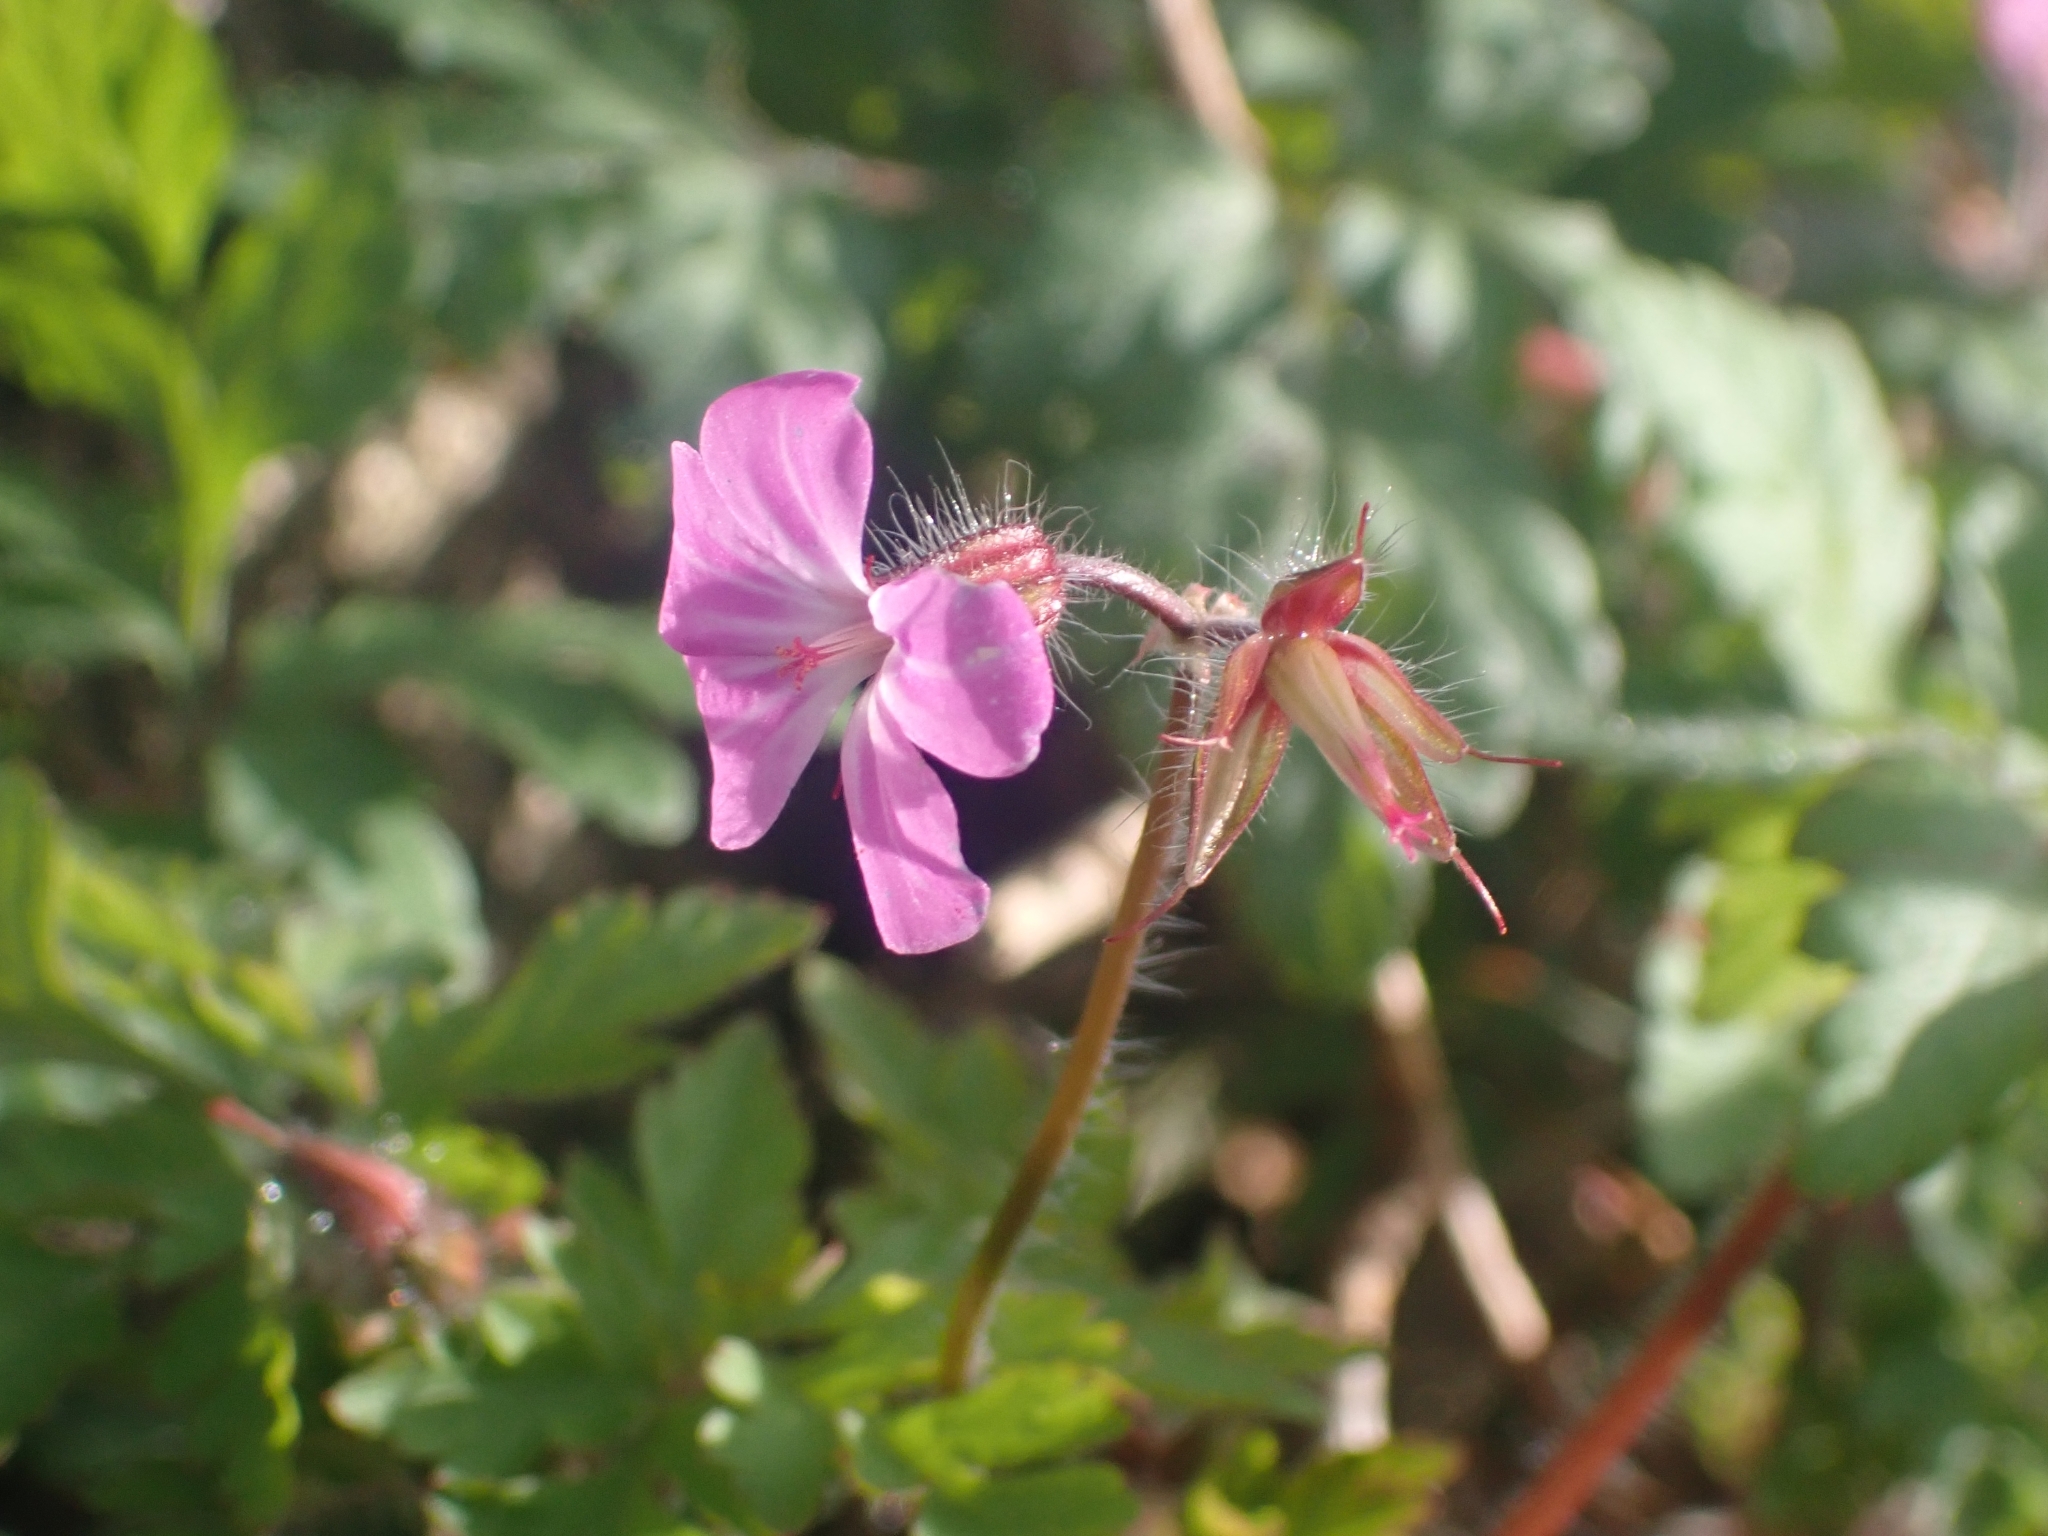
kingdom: Plantae
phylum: Tracheophyta
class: Magnoliopsida
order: Geraniales
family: Geraniaceae
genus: Geranium
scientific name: Geranium robertianum
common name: Herb-robert
